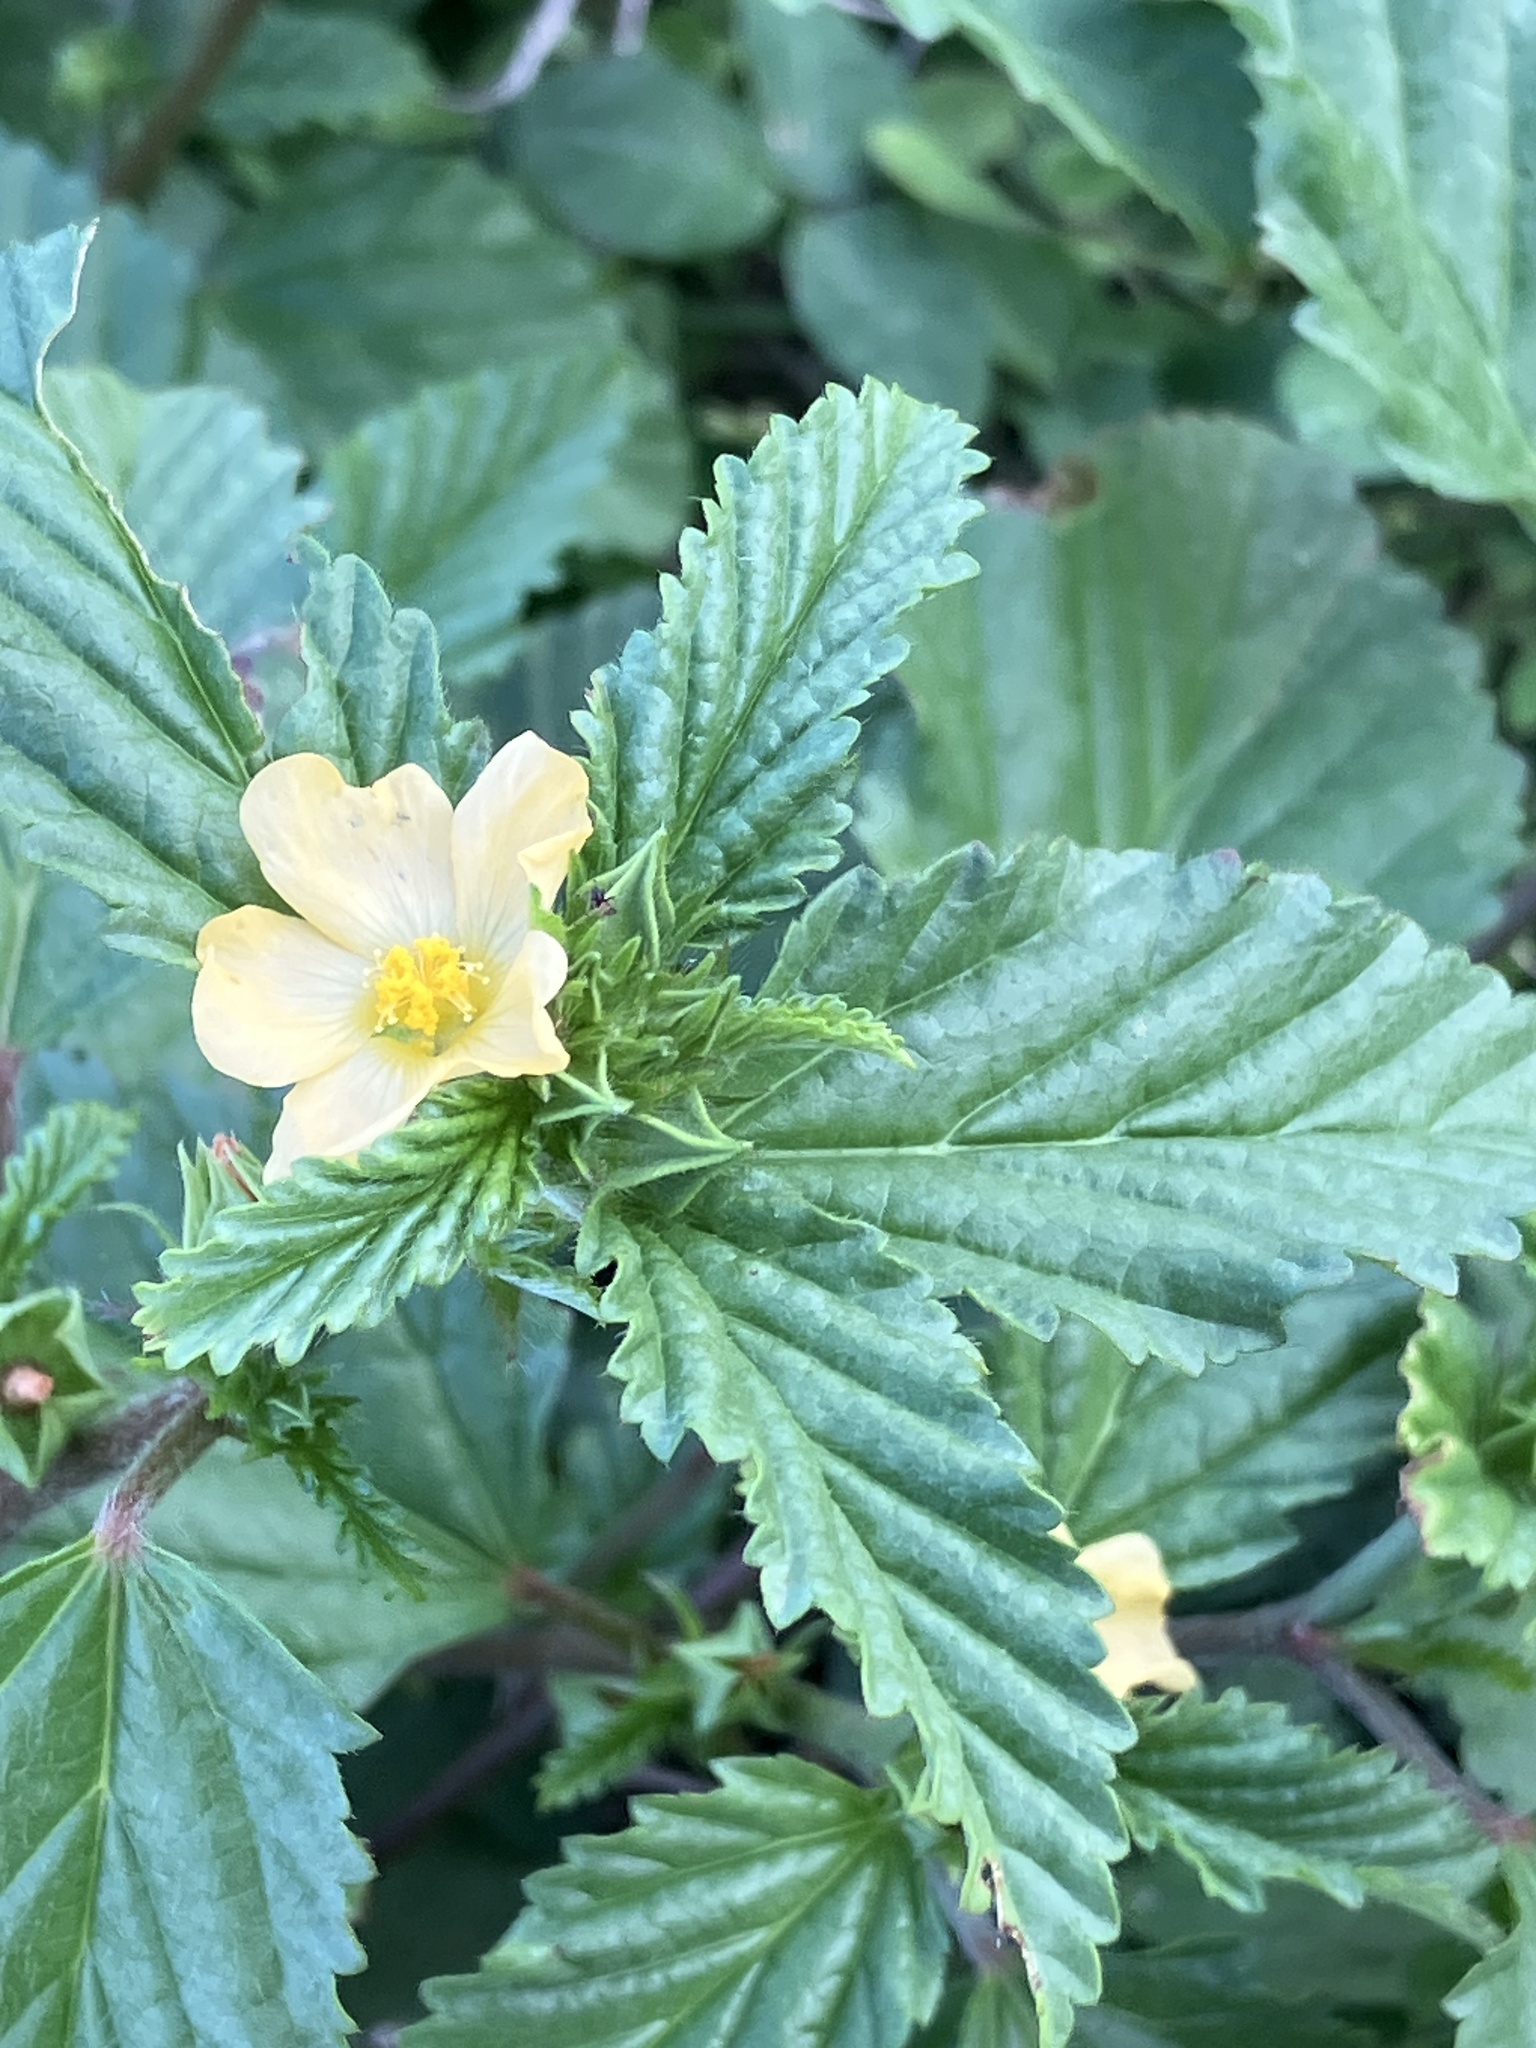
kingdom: Plantae
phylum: Tracheophyta
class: Magnoliopsida
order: Malvales
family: Malvaceae
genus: Malvastrum
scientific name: Malvastrum coromandelianum
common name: Threelobe false mallow
